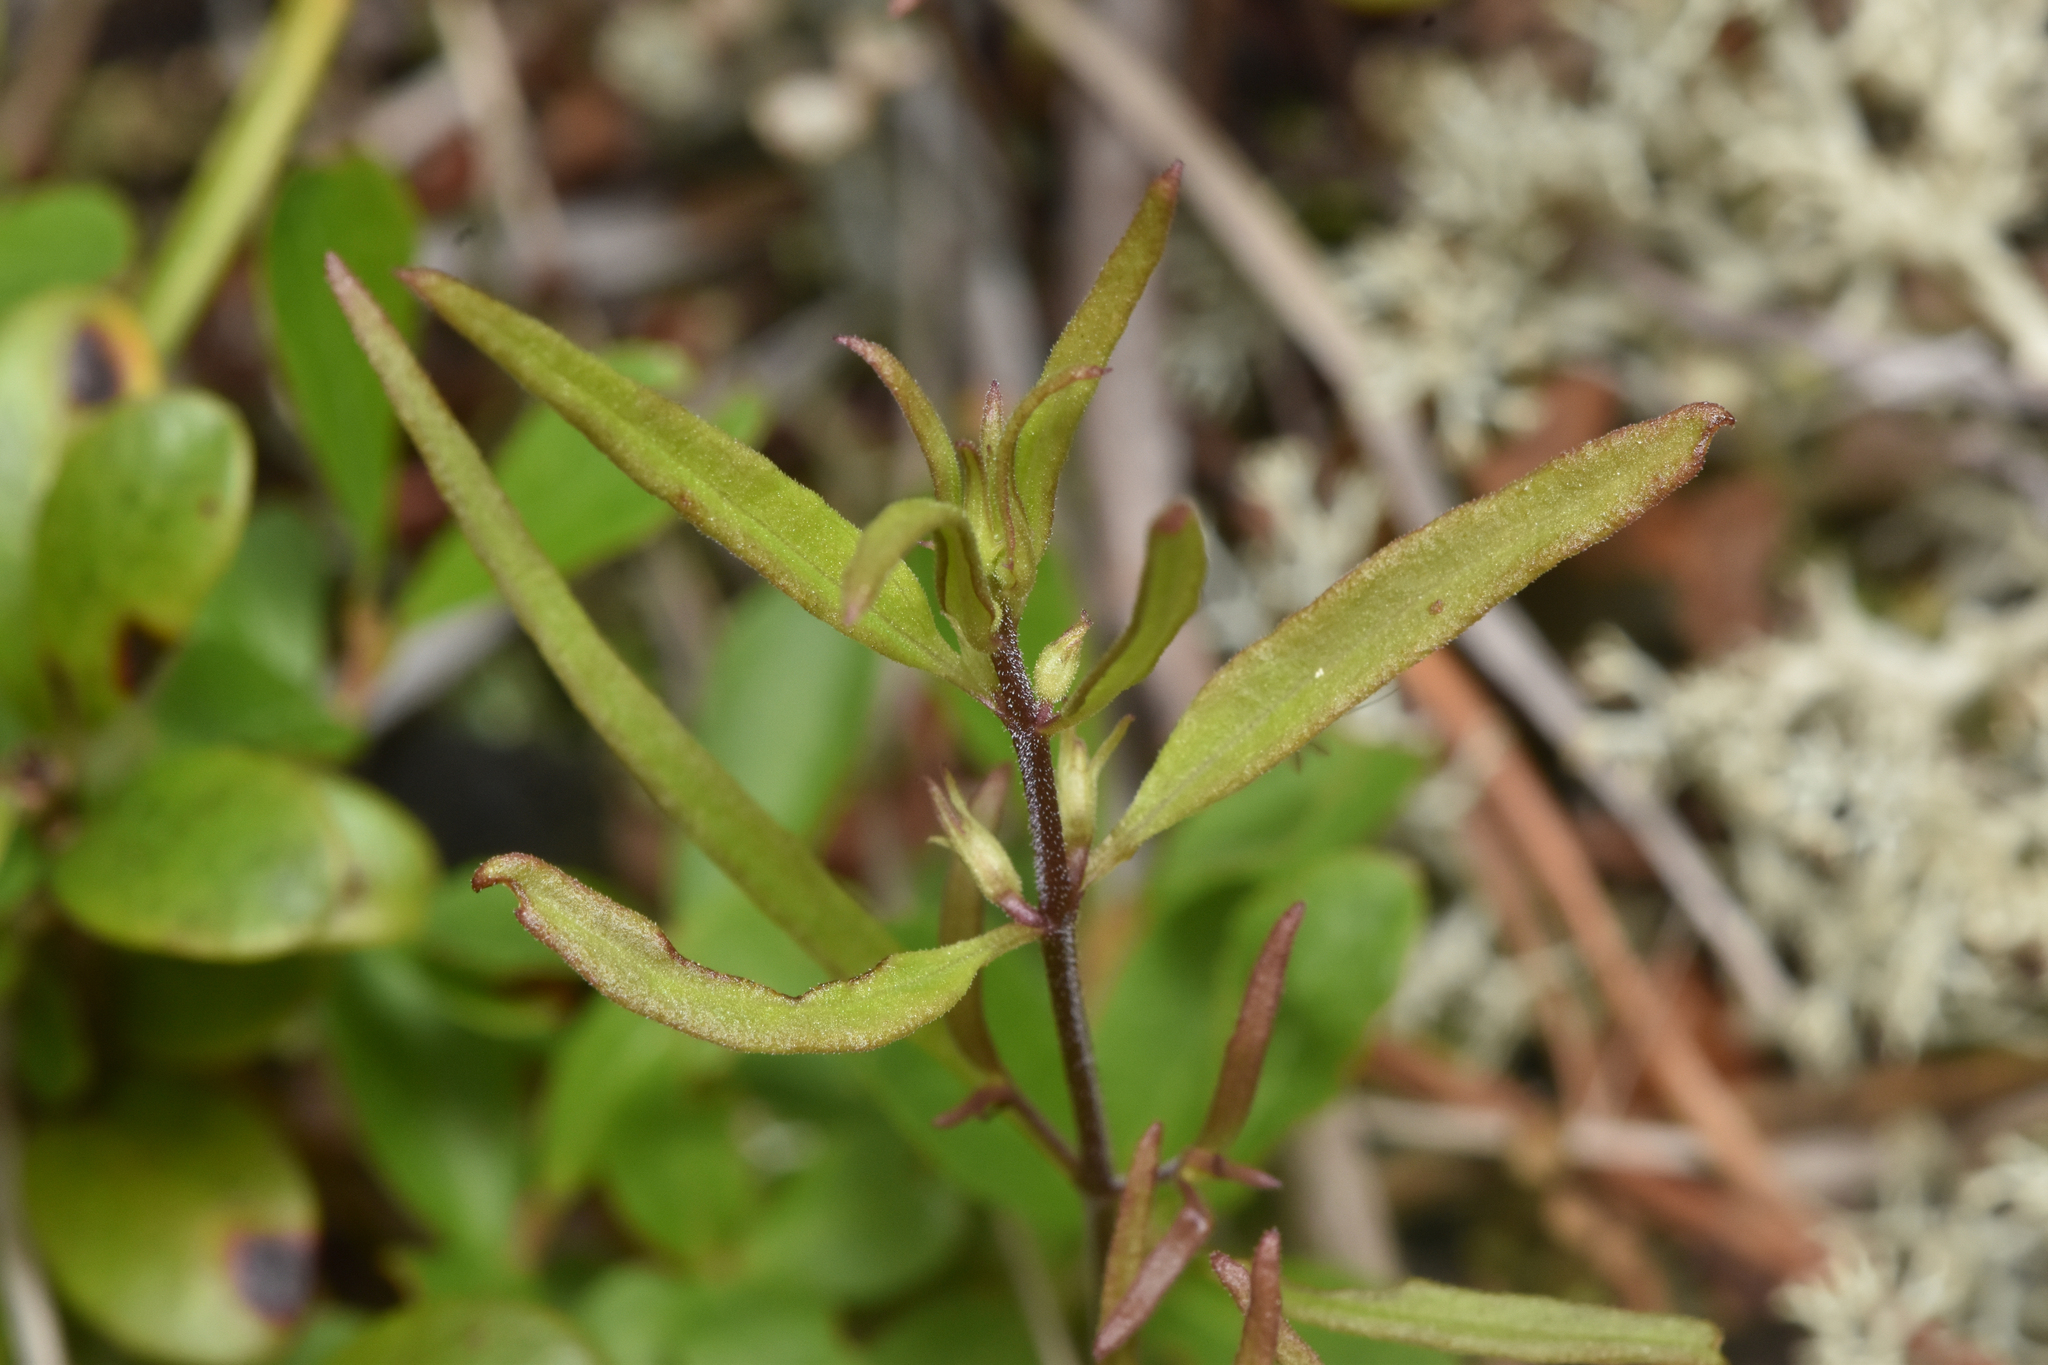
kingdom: Plantae
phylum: Tracheophyta
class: Magnoliopsida
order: Lamiales
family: Orobanchaceae
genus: Melampyrum
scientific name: Melampyrum lineare
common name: American cow-wheat
